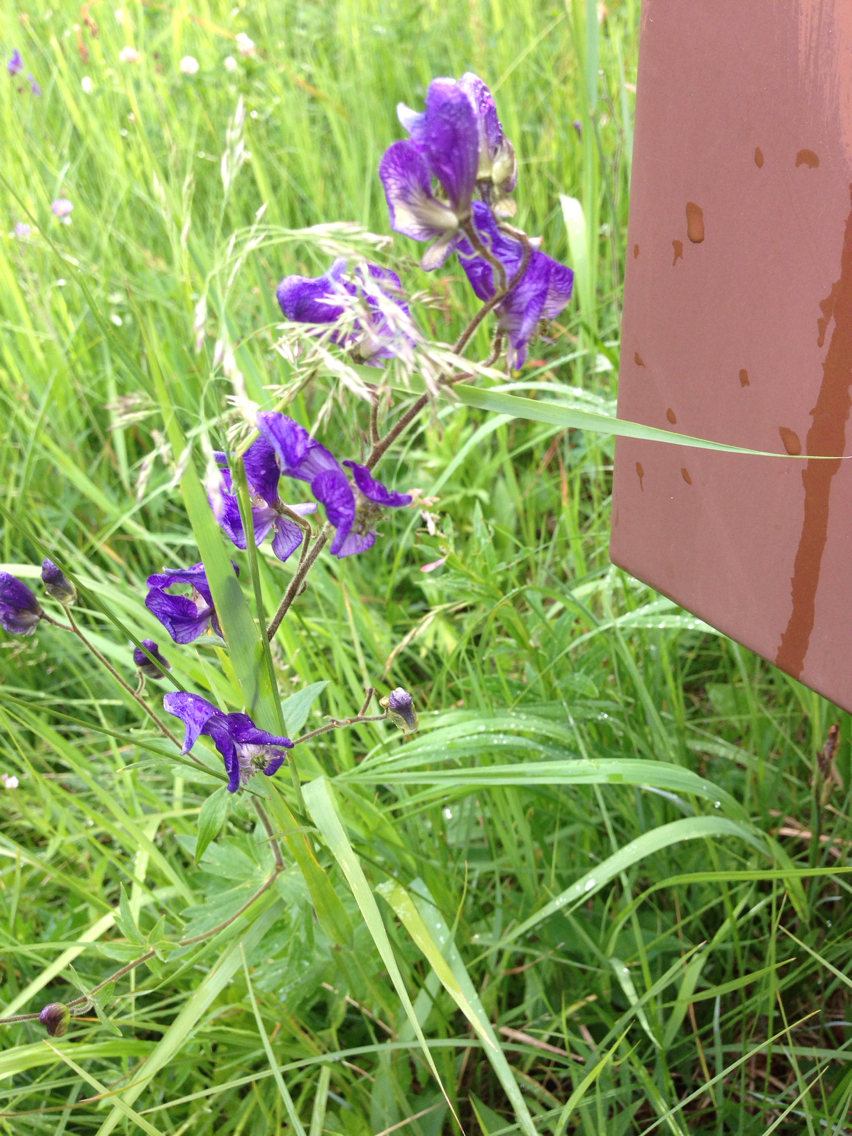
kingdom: Plantae
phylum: Tracheophyta
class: Magnoliopsida
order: Ranunculales
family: Ranunculaceae
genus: Aconitum
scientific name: Aconitum columbianum
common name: Columbia aconite
